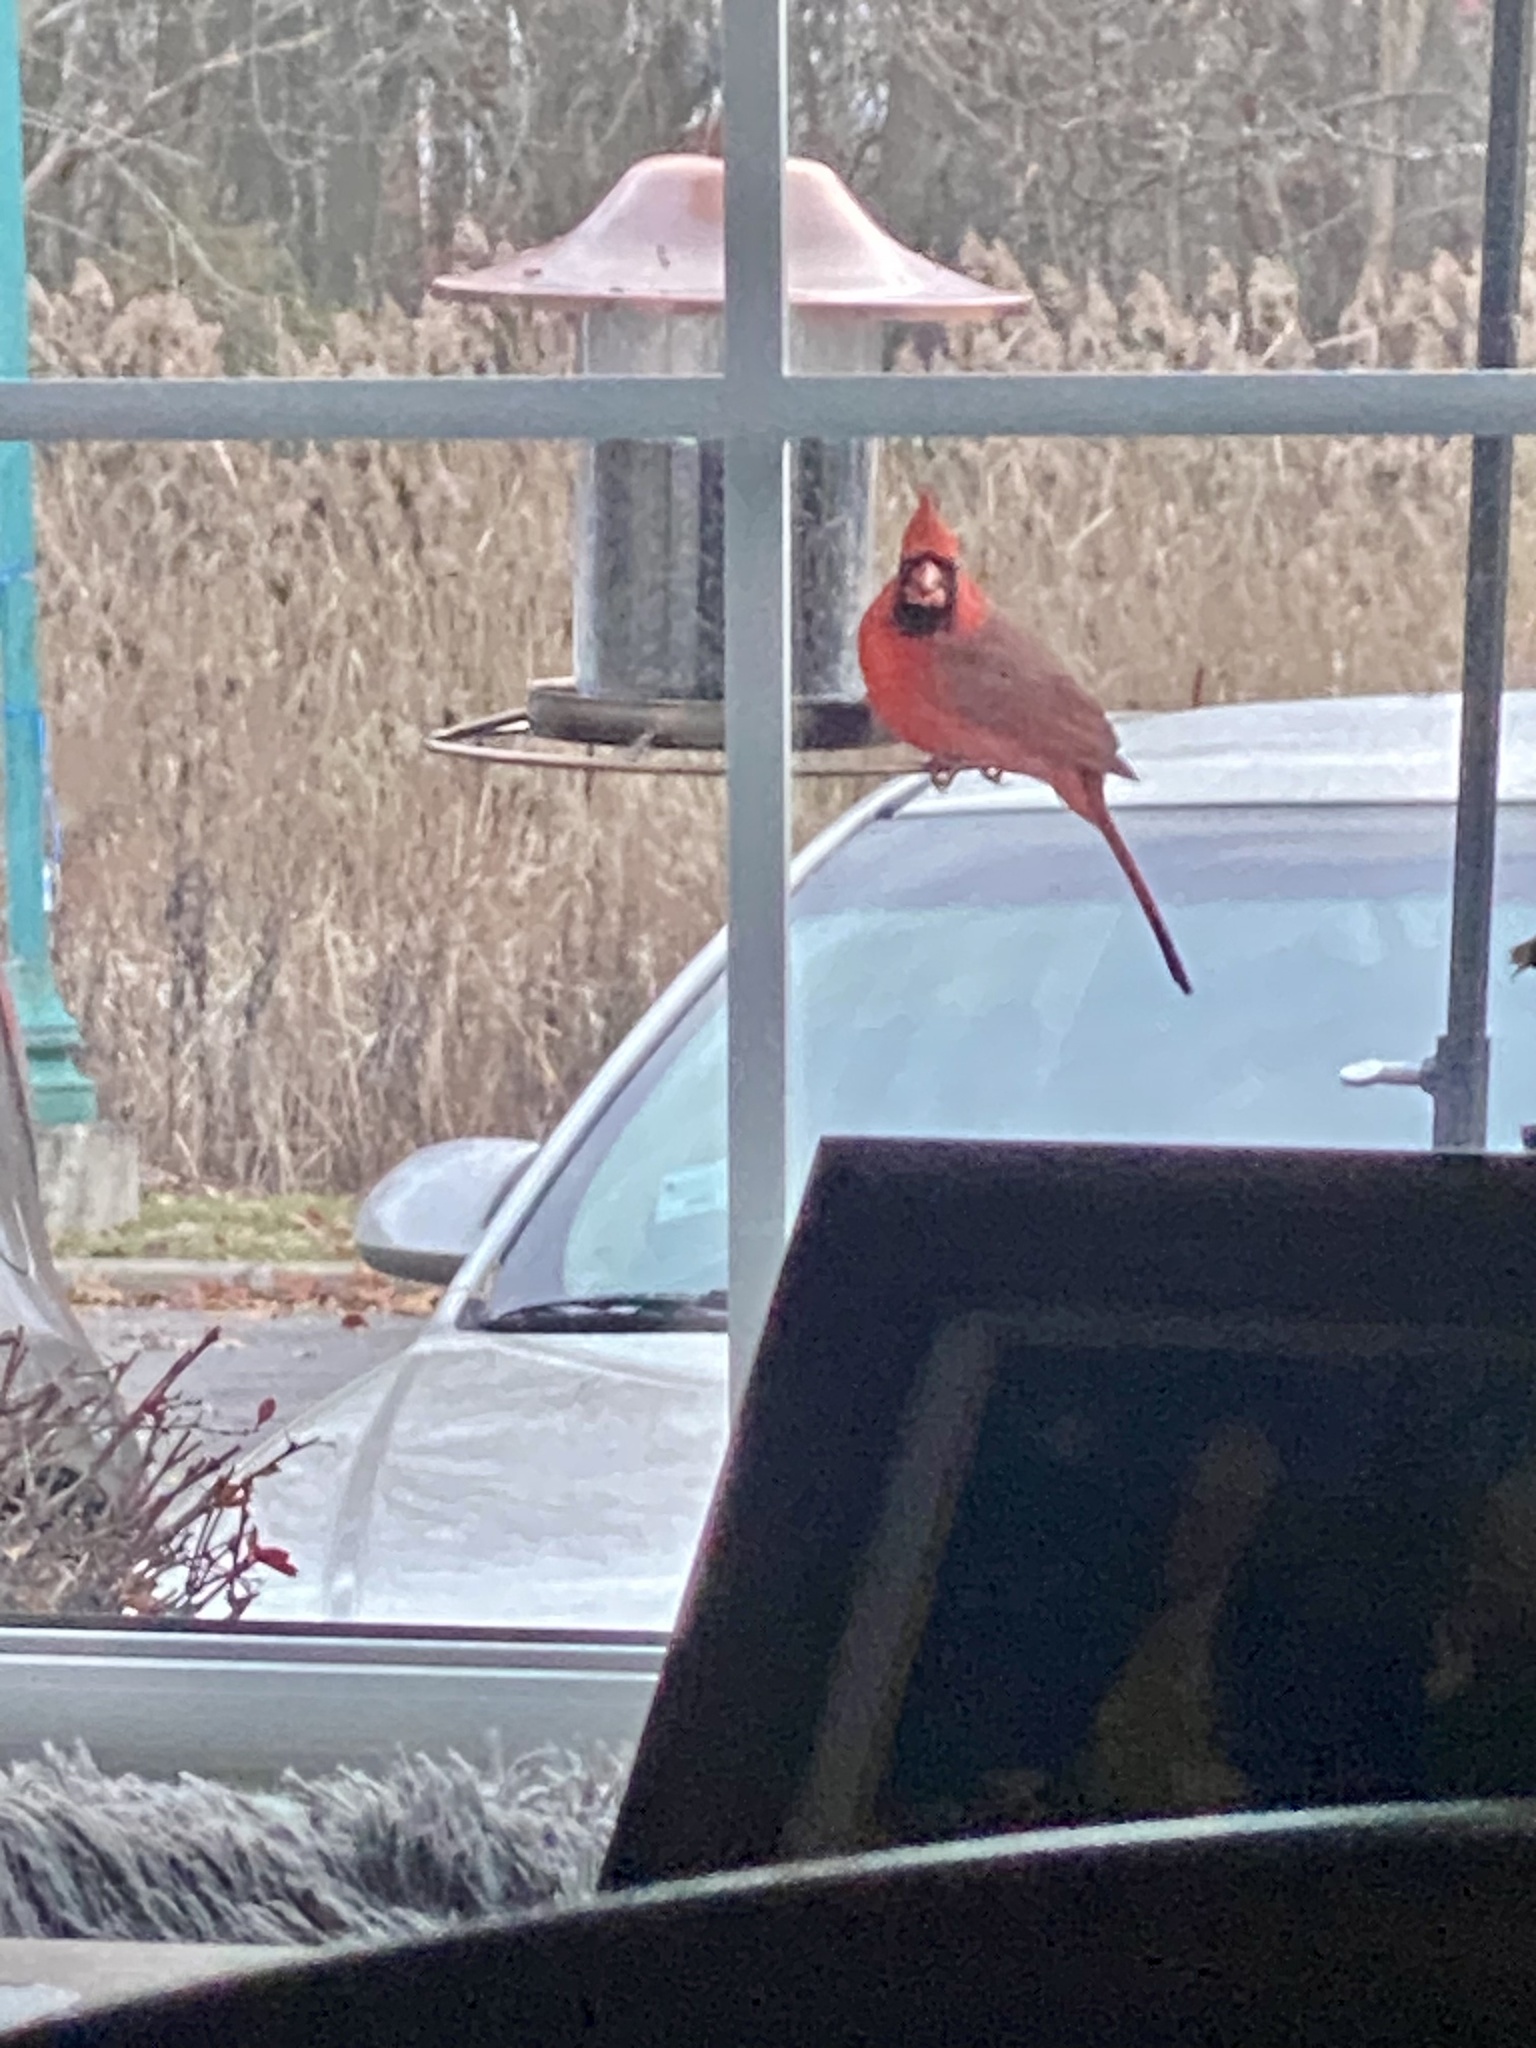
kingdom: Animalia
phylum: Chordata
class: Aves
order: Passeriformes
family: Cardinalidae
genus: Cardinalis
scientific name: Cardinalis cardinalis
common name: Northern cardinal
